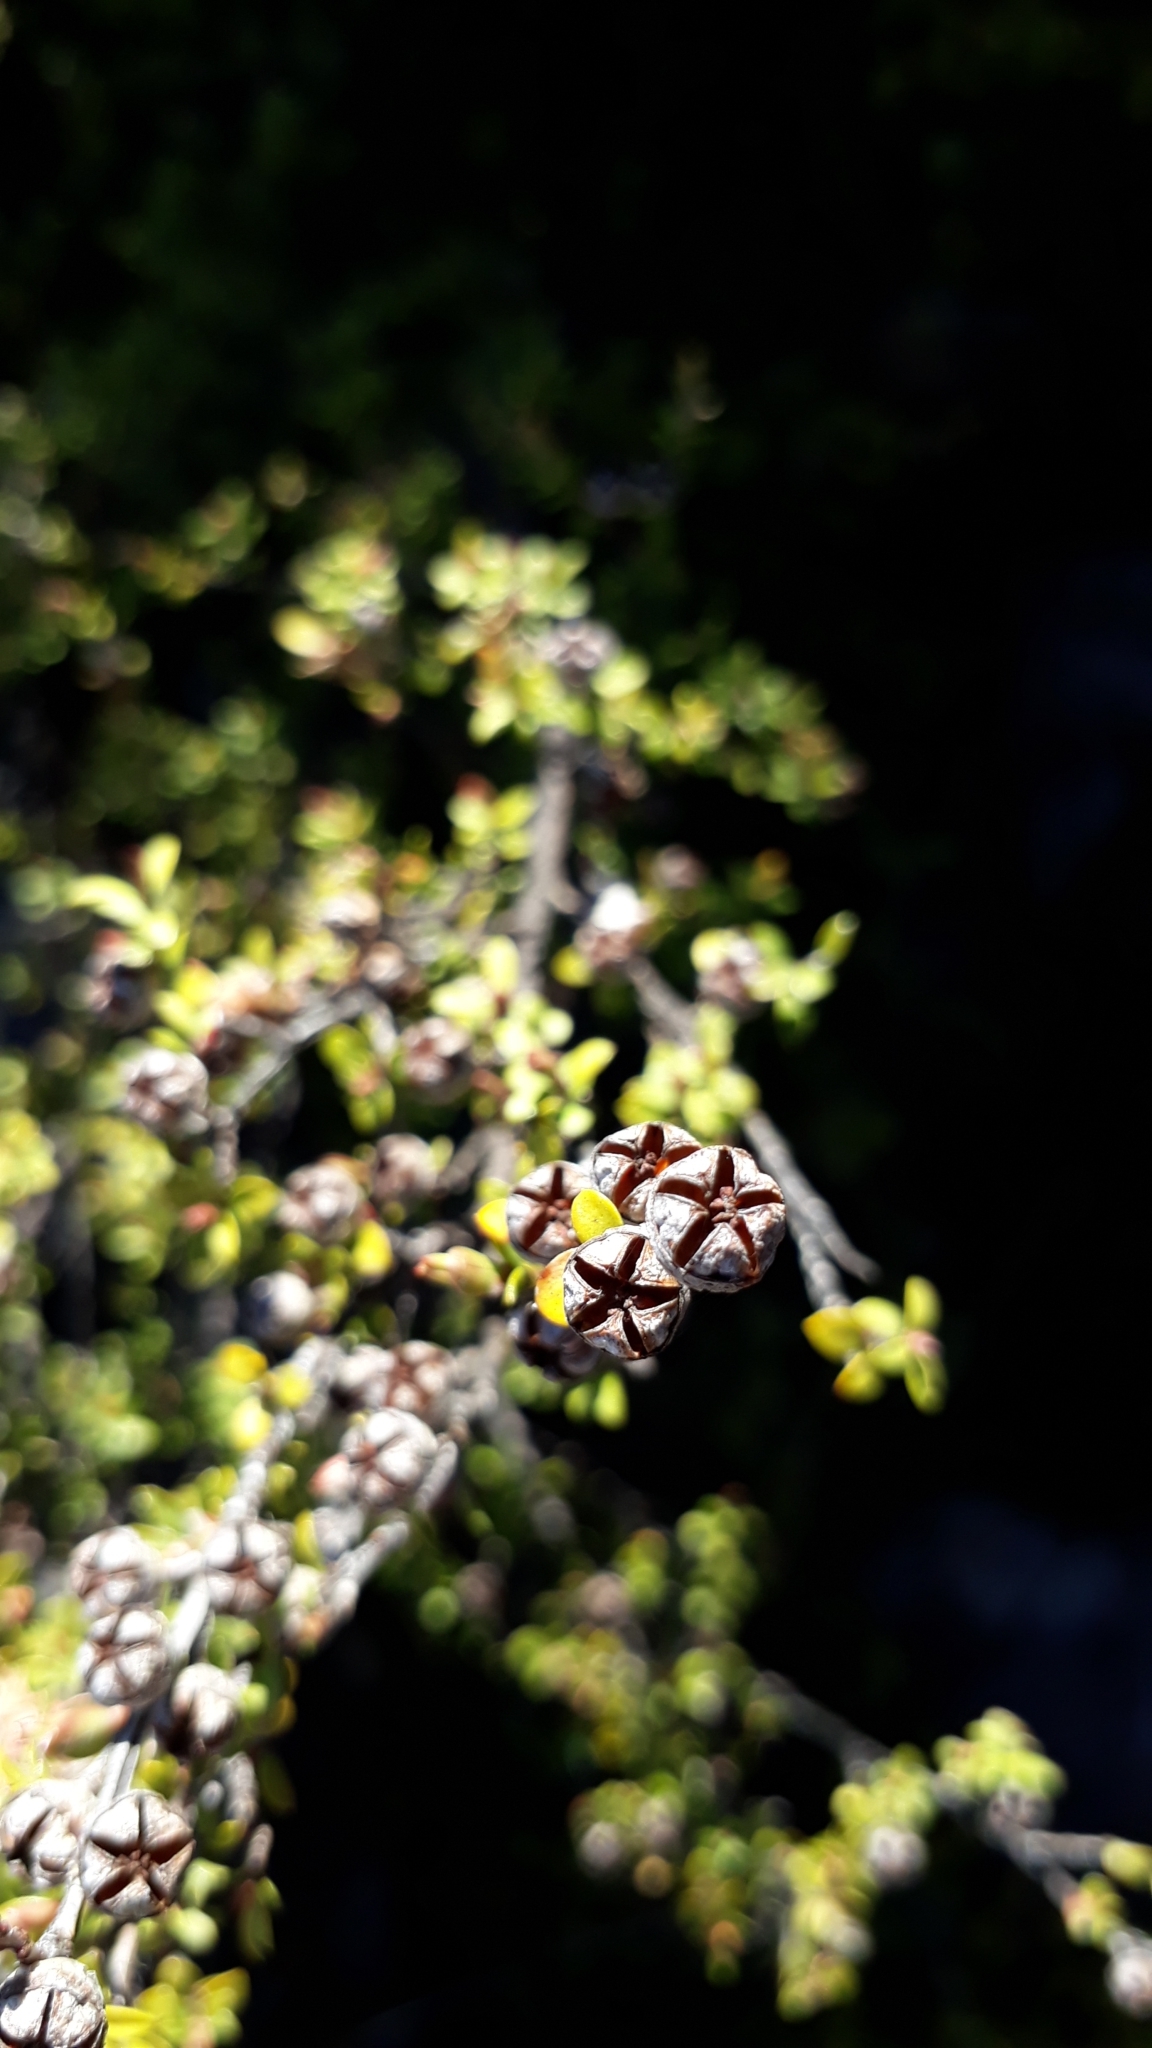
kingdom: Plantae
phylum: Tracheophyta
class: Magnoliopsida
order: Myrtales
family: Myrtaceae
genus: Leptospermum
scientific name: Leptospermum scoparium
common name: Broom tea-tree
